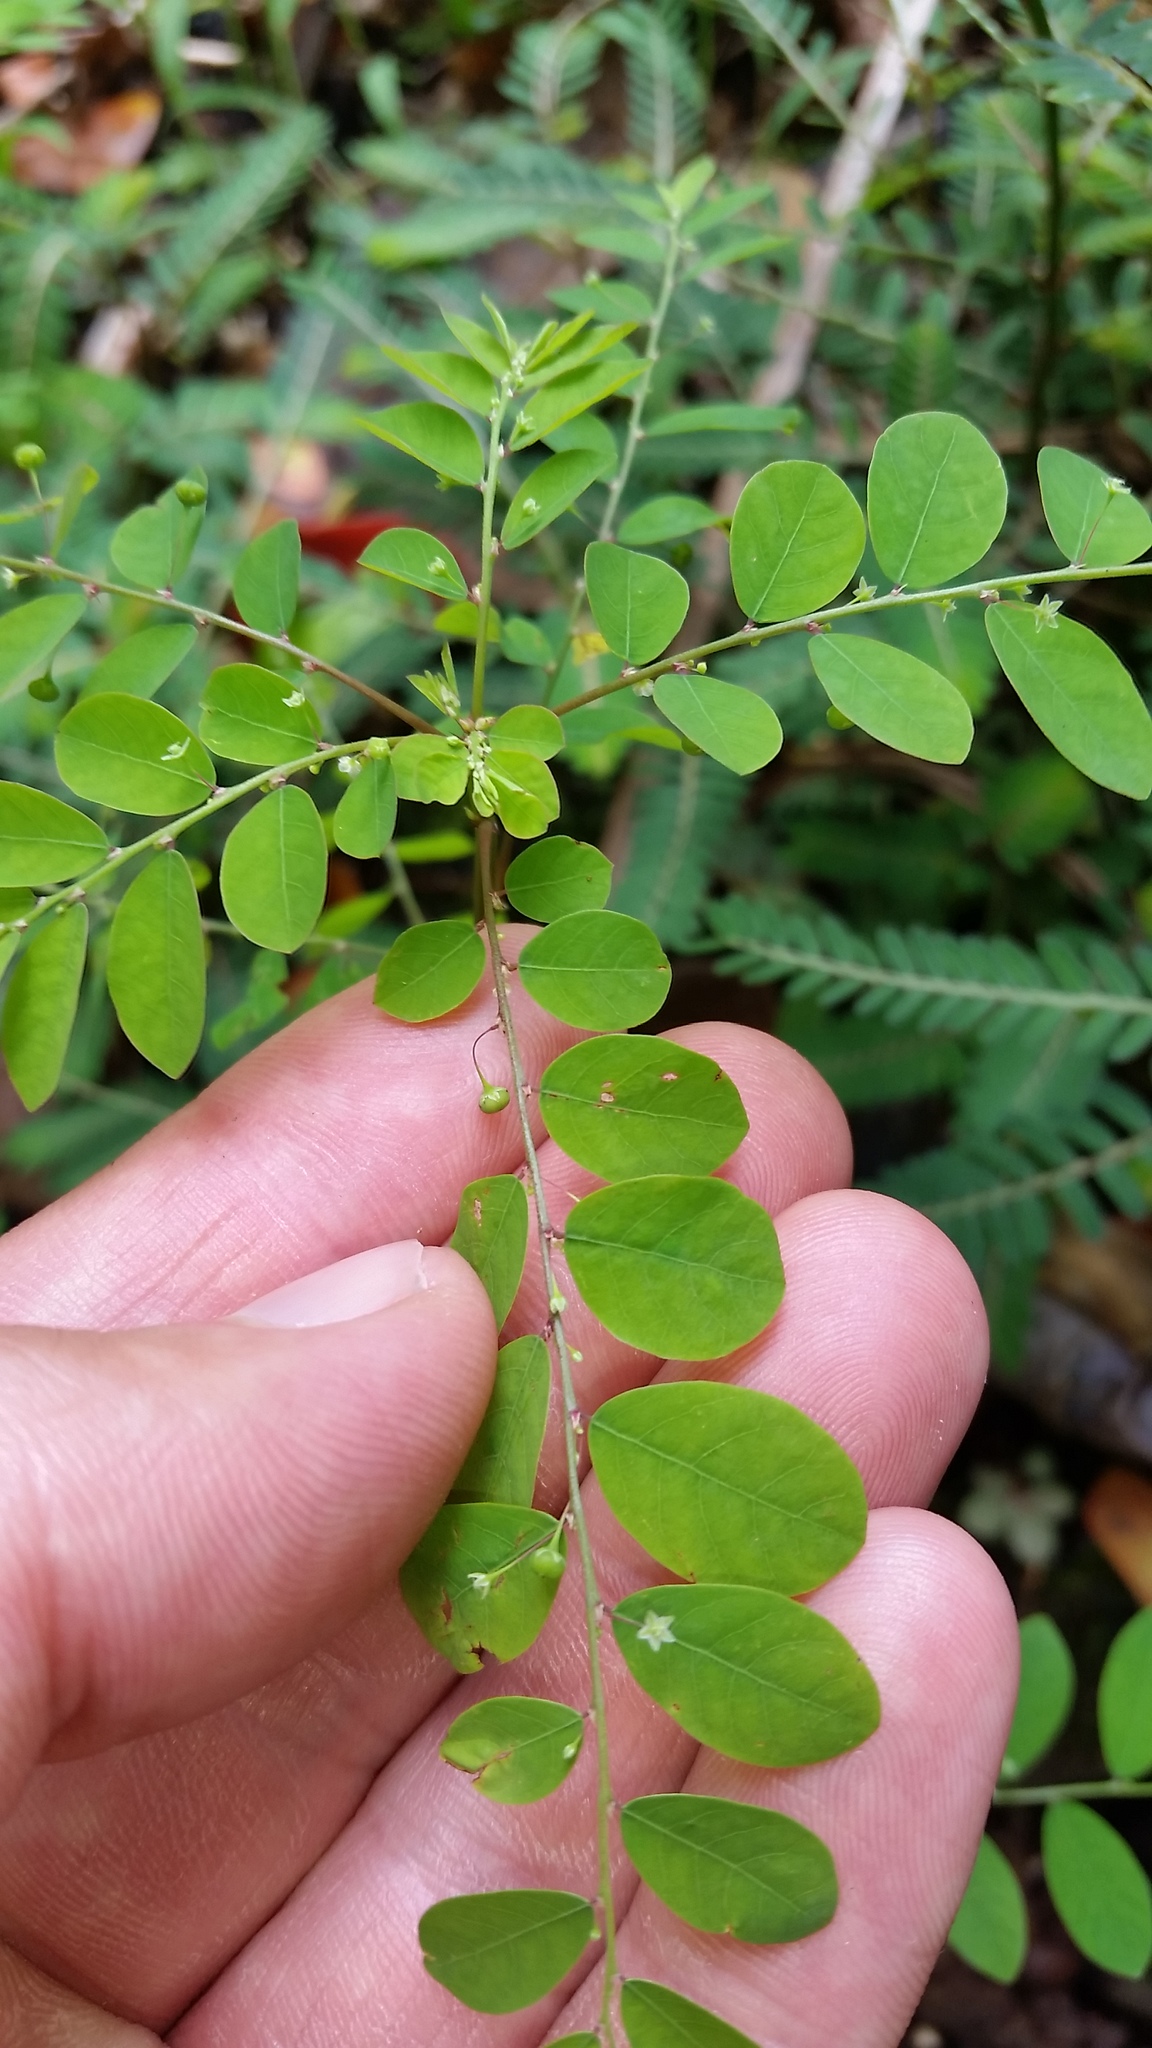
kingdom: Plantae
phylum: Tracheophyta
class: Magnoliopsida
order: Malpighiales
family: Phyllanthaceae
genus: Phyllanthus
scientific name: Phyllanthus tenellus
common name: Mascarene island leaf-flower
